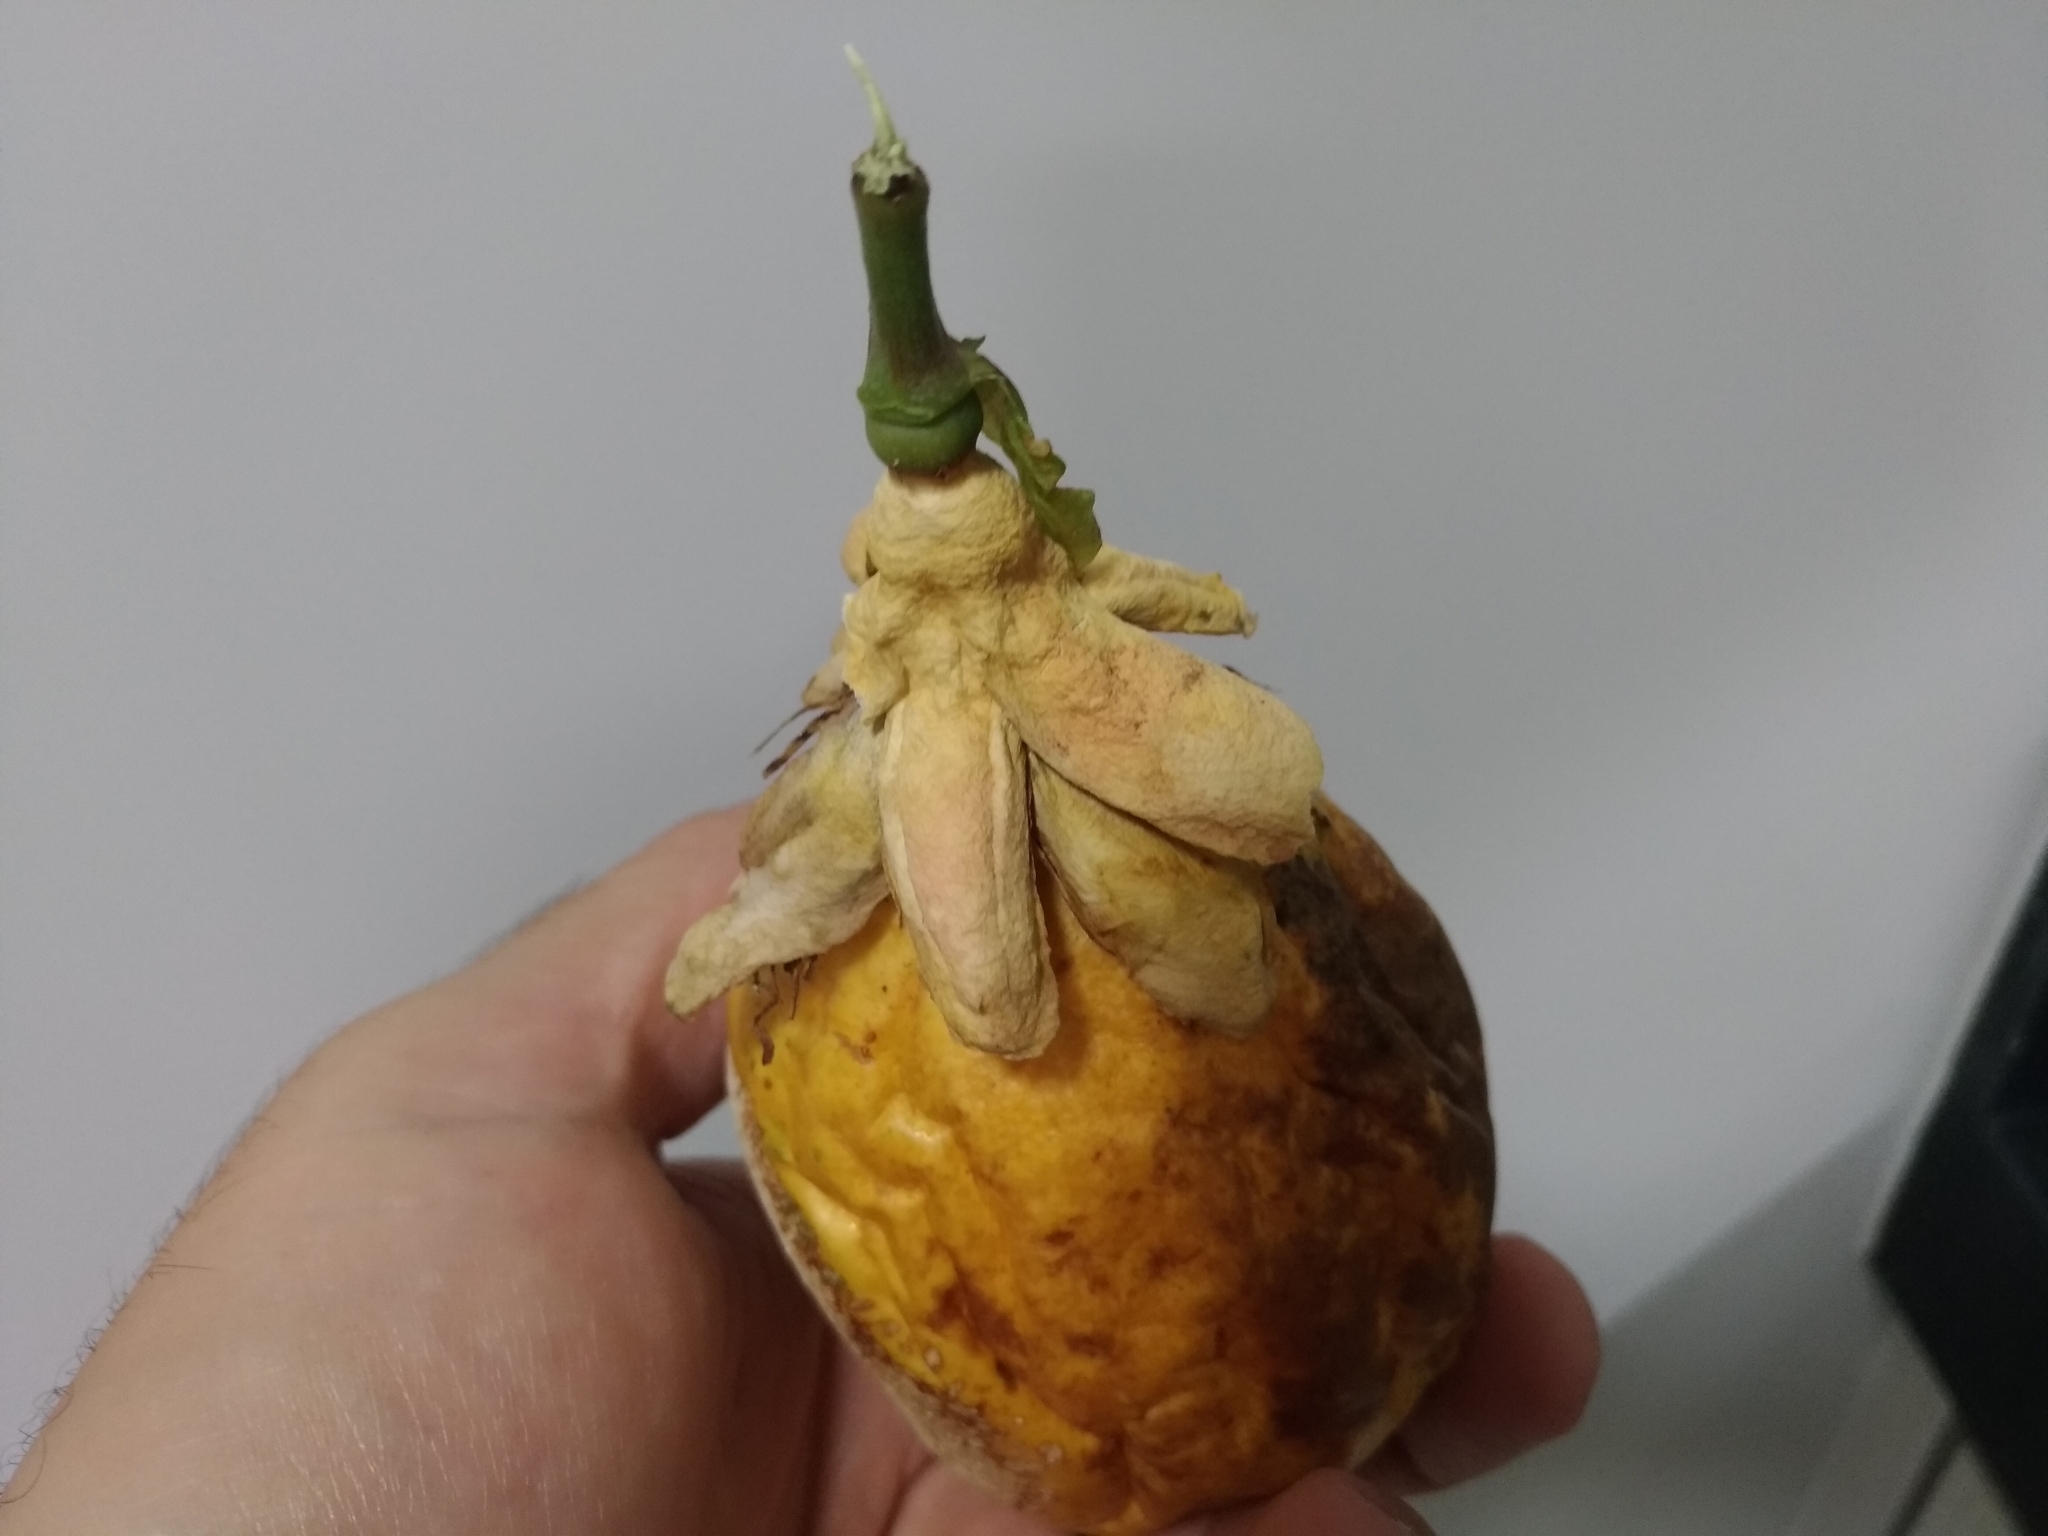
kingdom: Plantae
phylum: Tracheophyta
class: Magnoliopsida
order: Malpighiales
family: Passifloraceae
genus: Passiflora
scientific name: Passiflora alata
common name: Wing-stemmed passion flower
